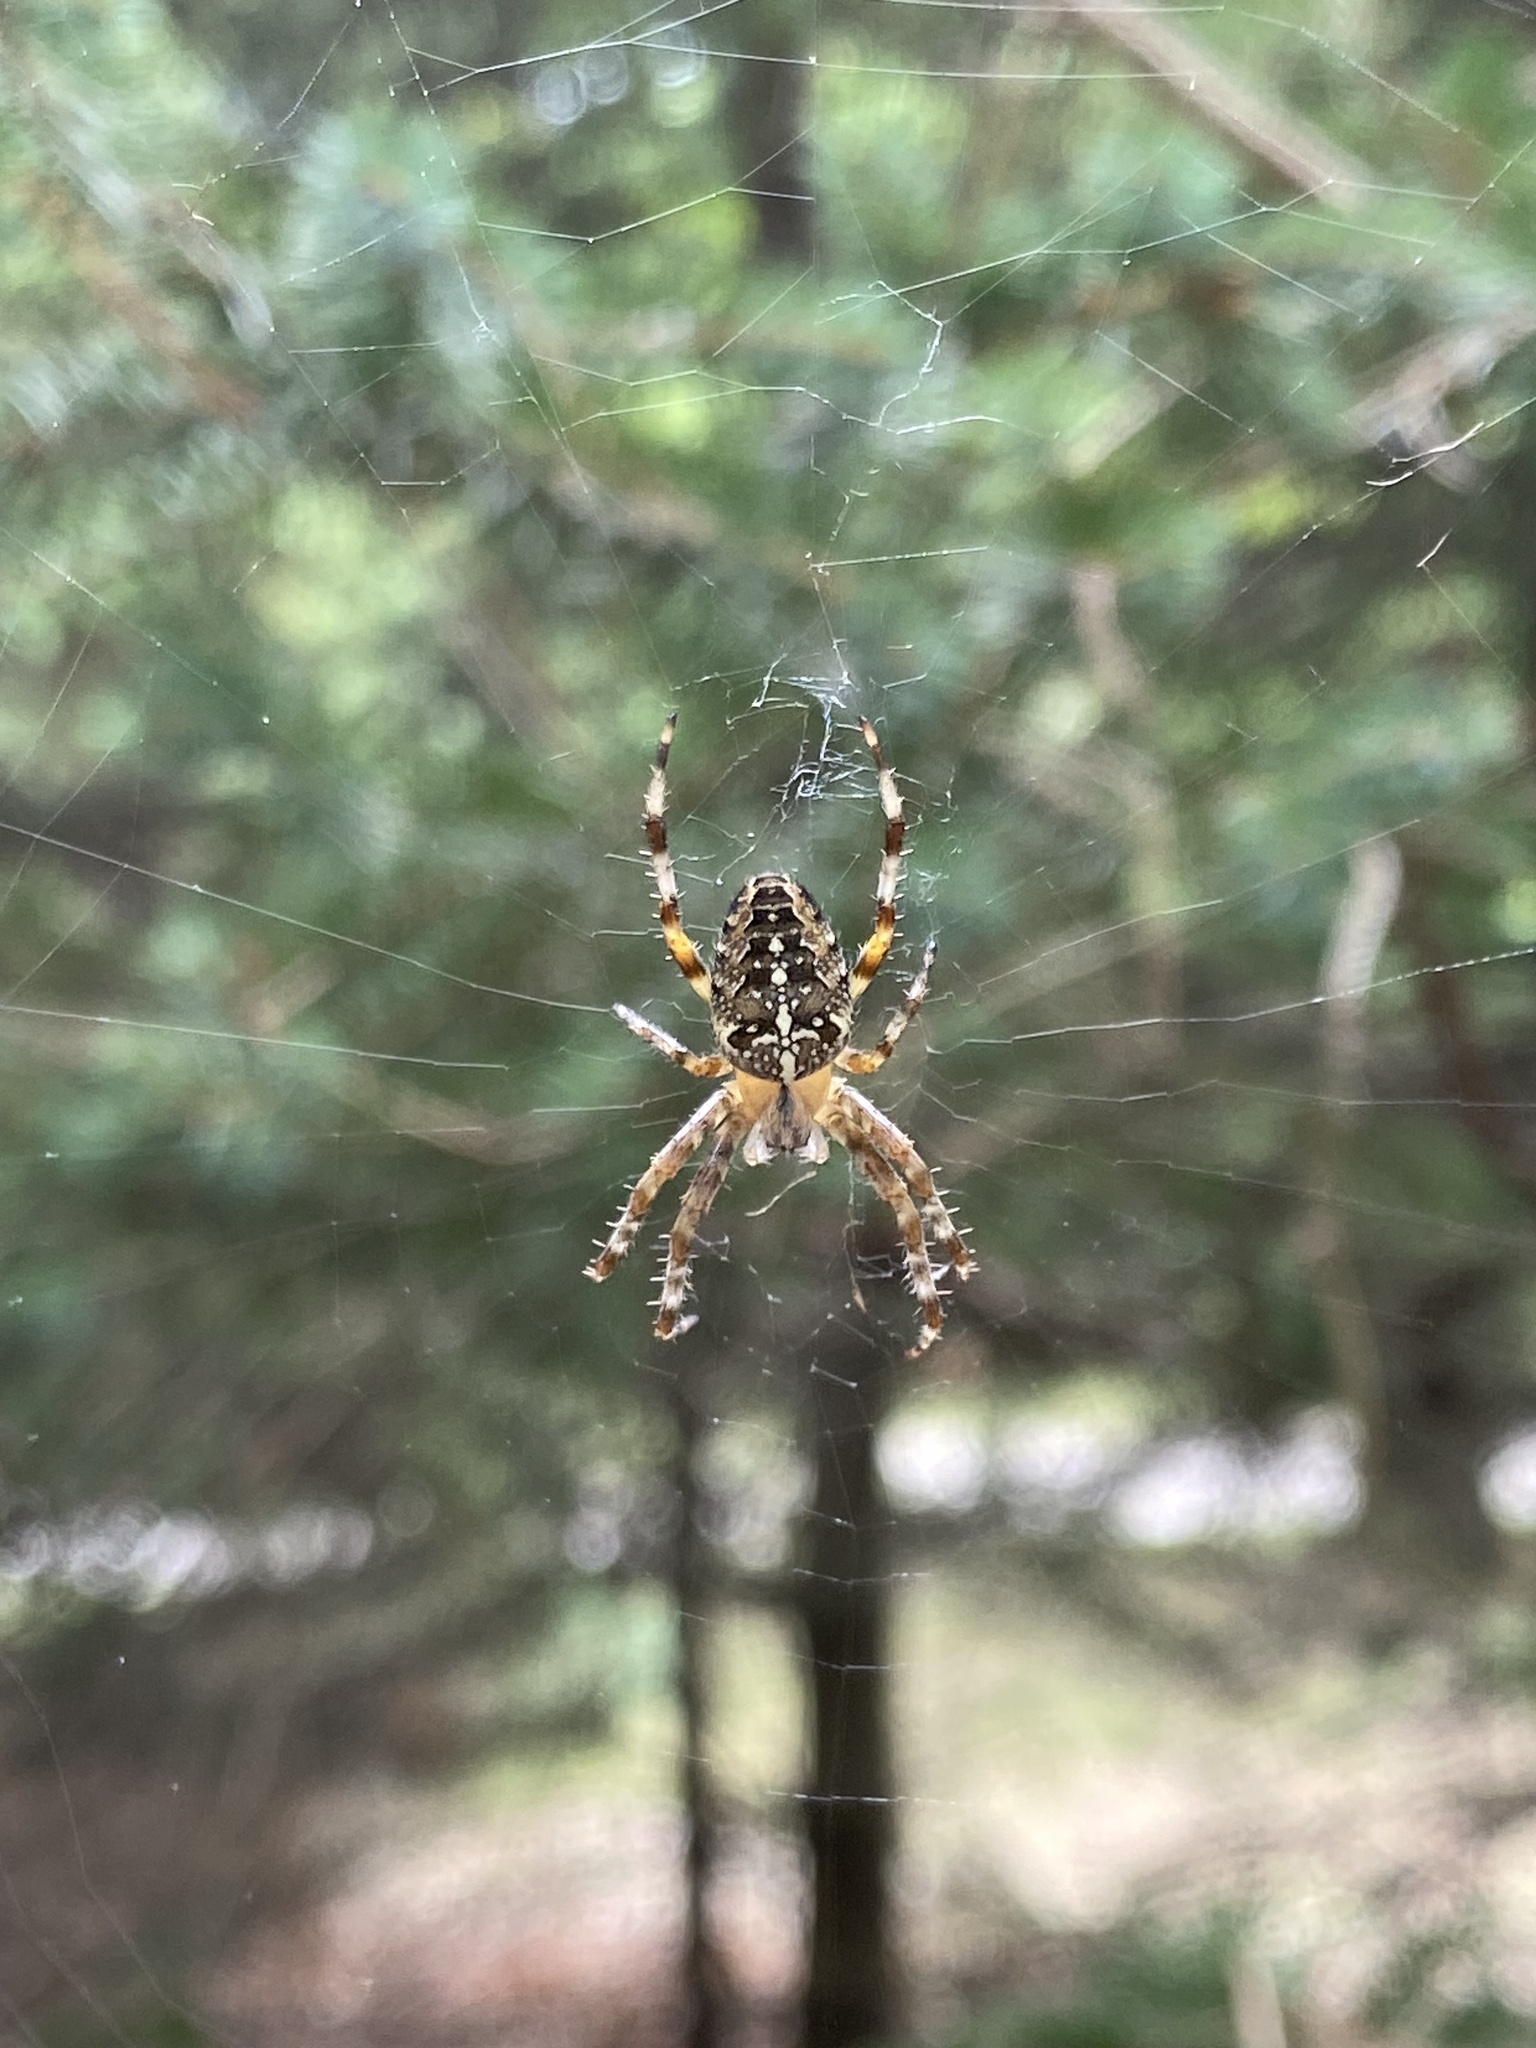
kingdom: Animalia
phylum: Arthropoda
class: Arachnida
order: Araneae
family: Araneidae
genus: Araneus
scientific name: Araneus diadematus
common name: Cross orbweaver
